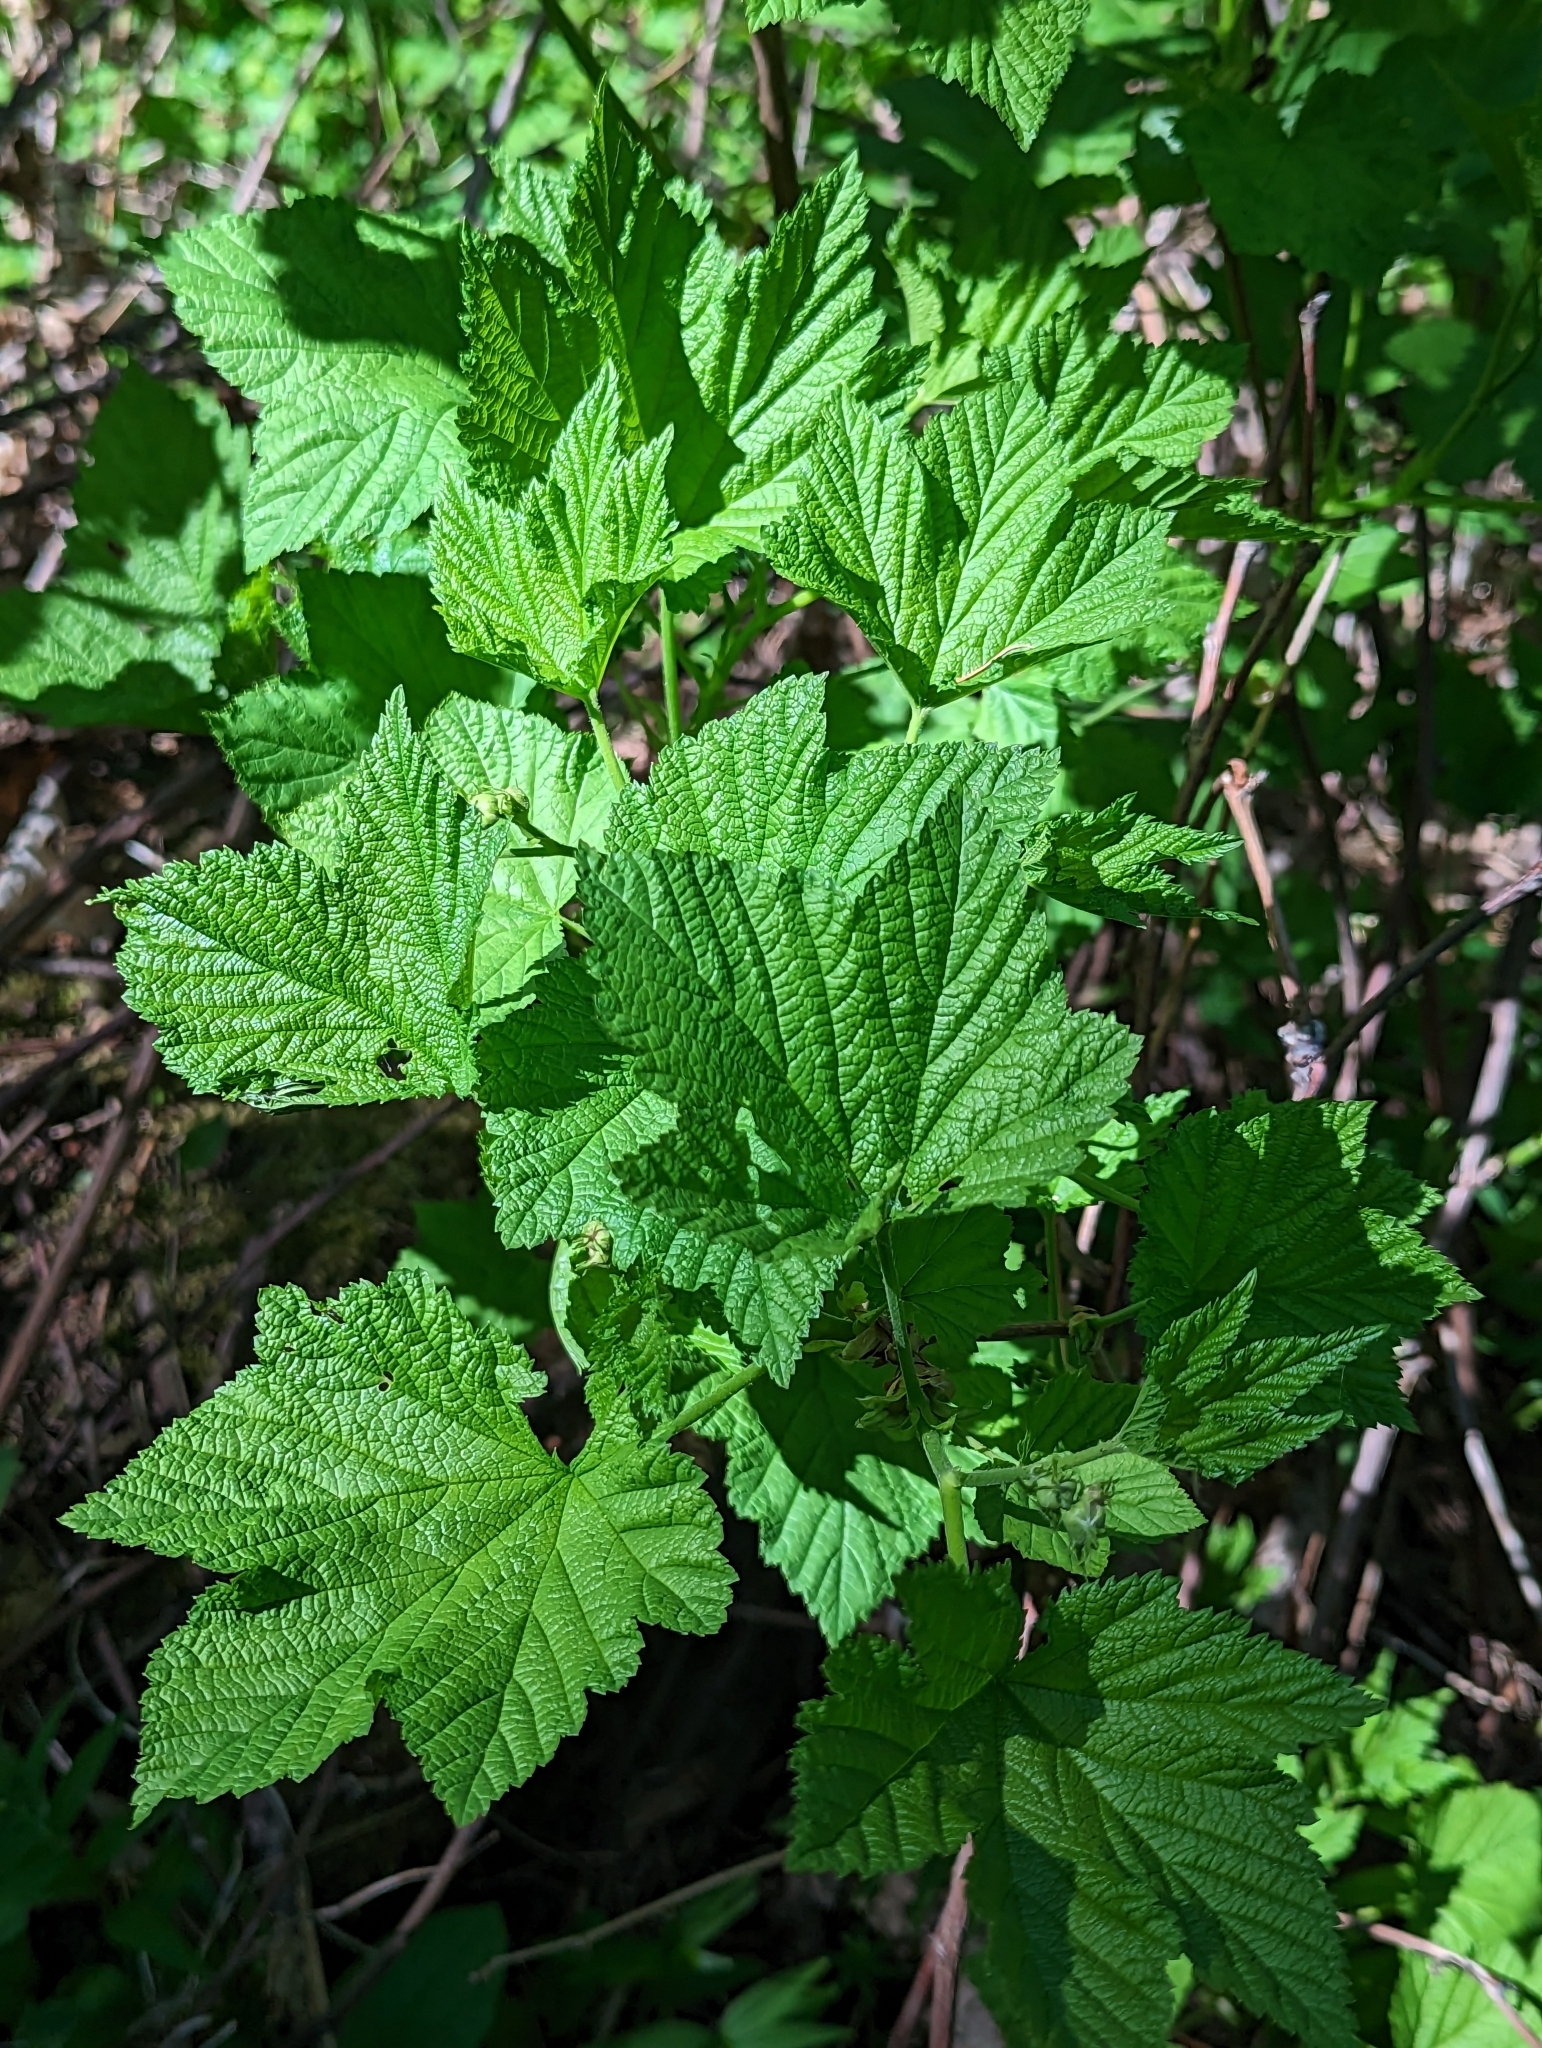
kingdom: Plantae
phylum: Tracheophyta
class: Magnoliopsida
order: Rosales
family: Rosaceae
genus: Rubus
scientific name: Rubus parviflorus
